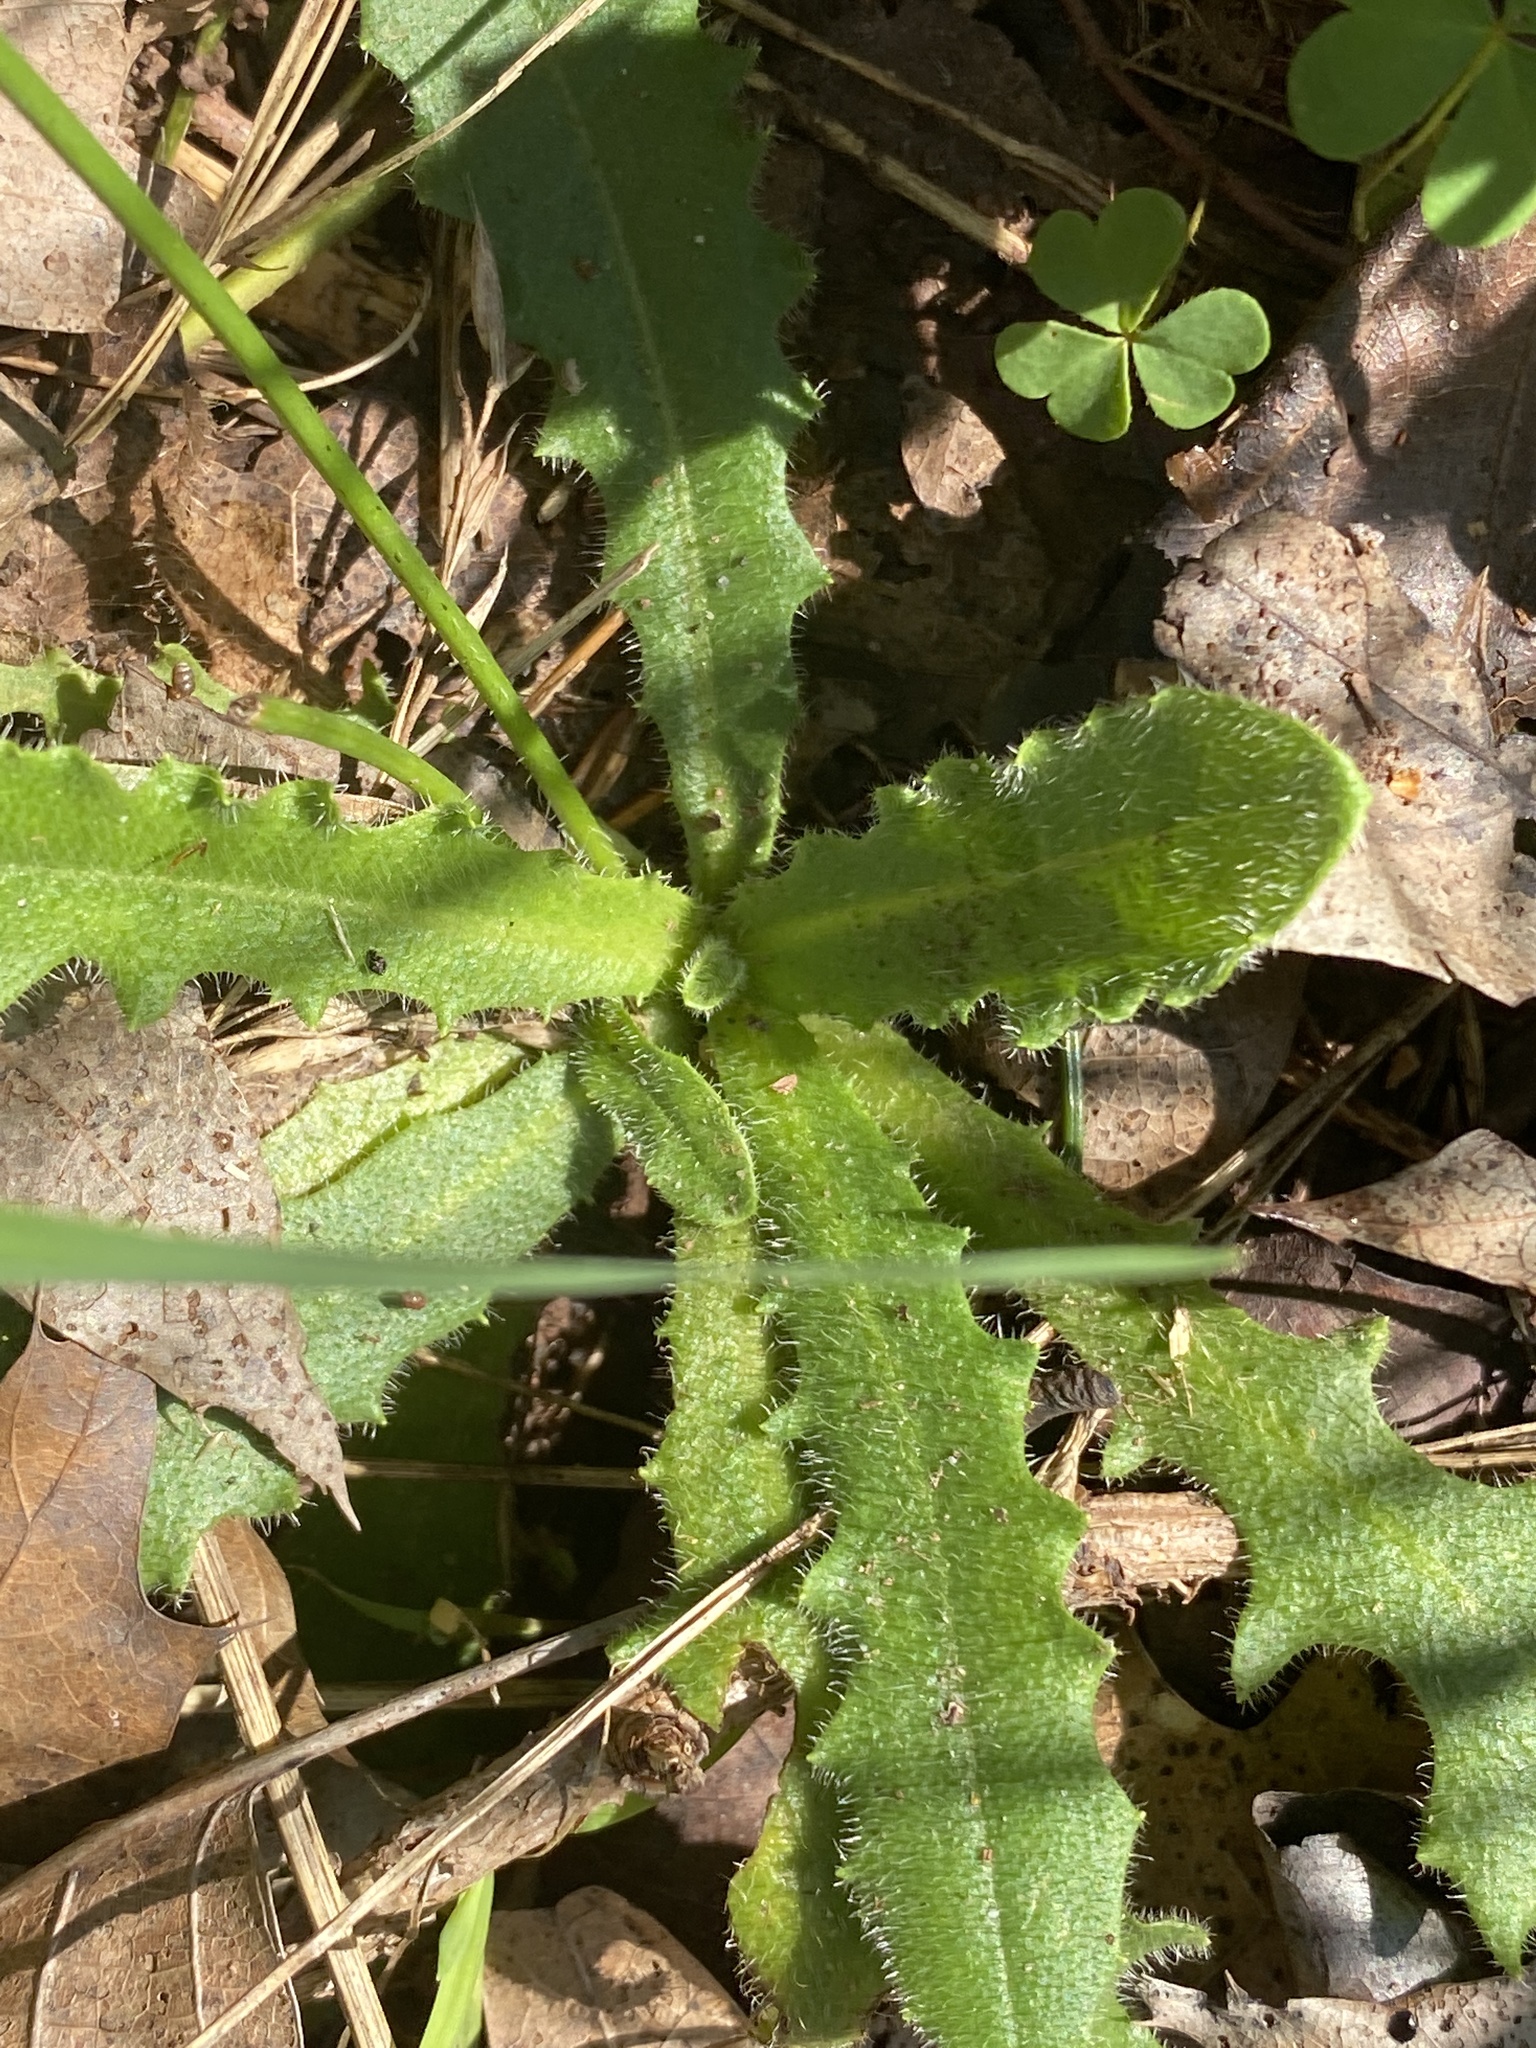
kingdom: Plantae
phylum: Tracheophyta
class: Magnoliopsida
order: Asterales
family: Asteraceae
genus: Hypochaeris
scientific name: Hypochaeris radicata
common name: Flatweed
